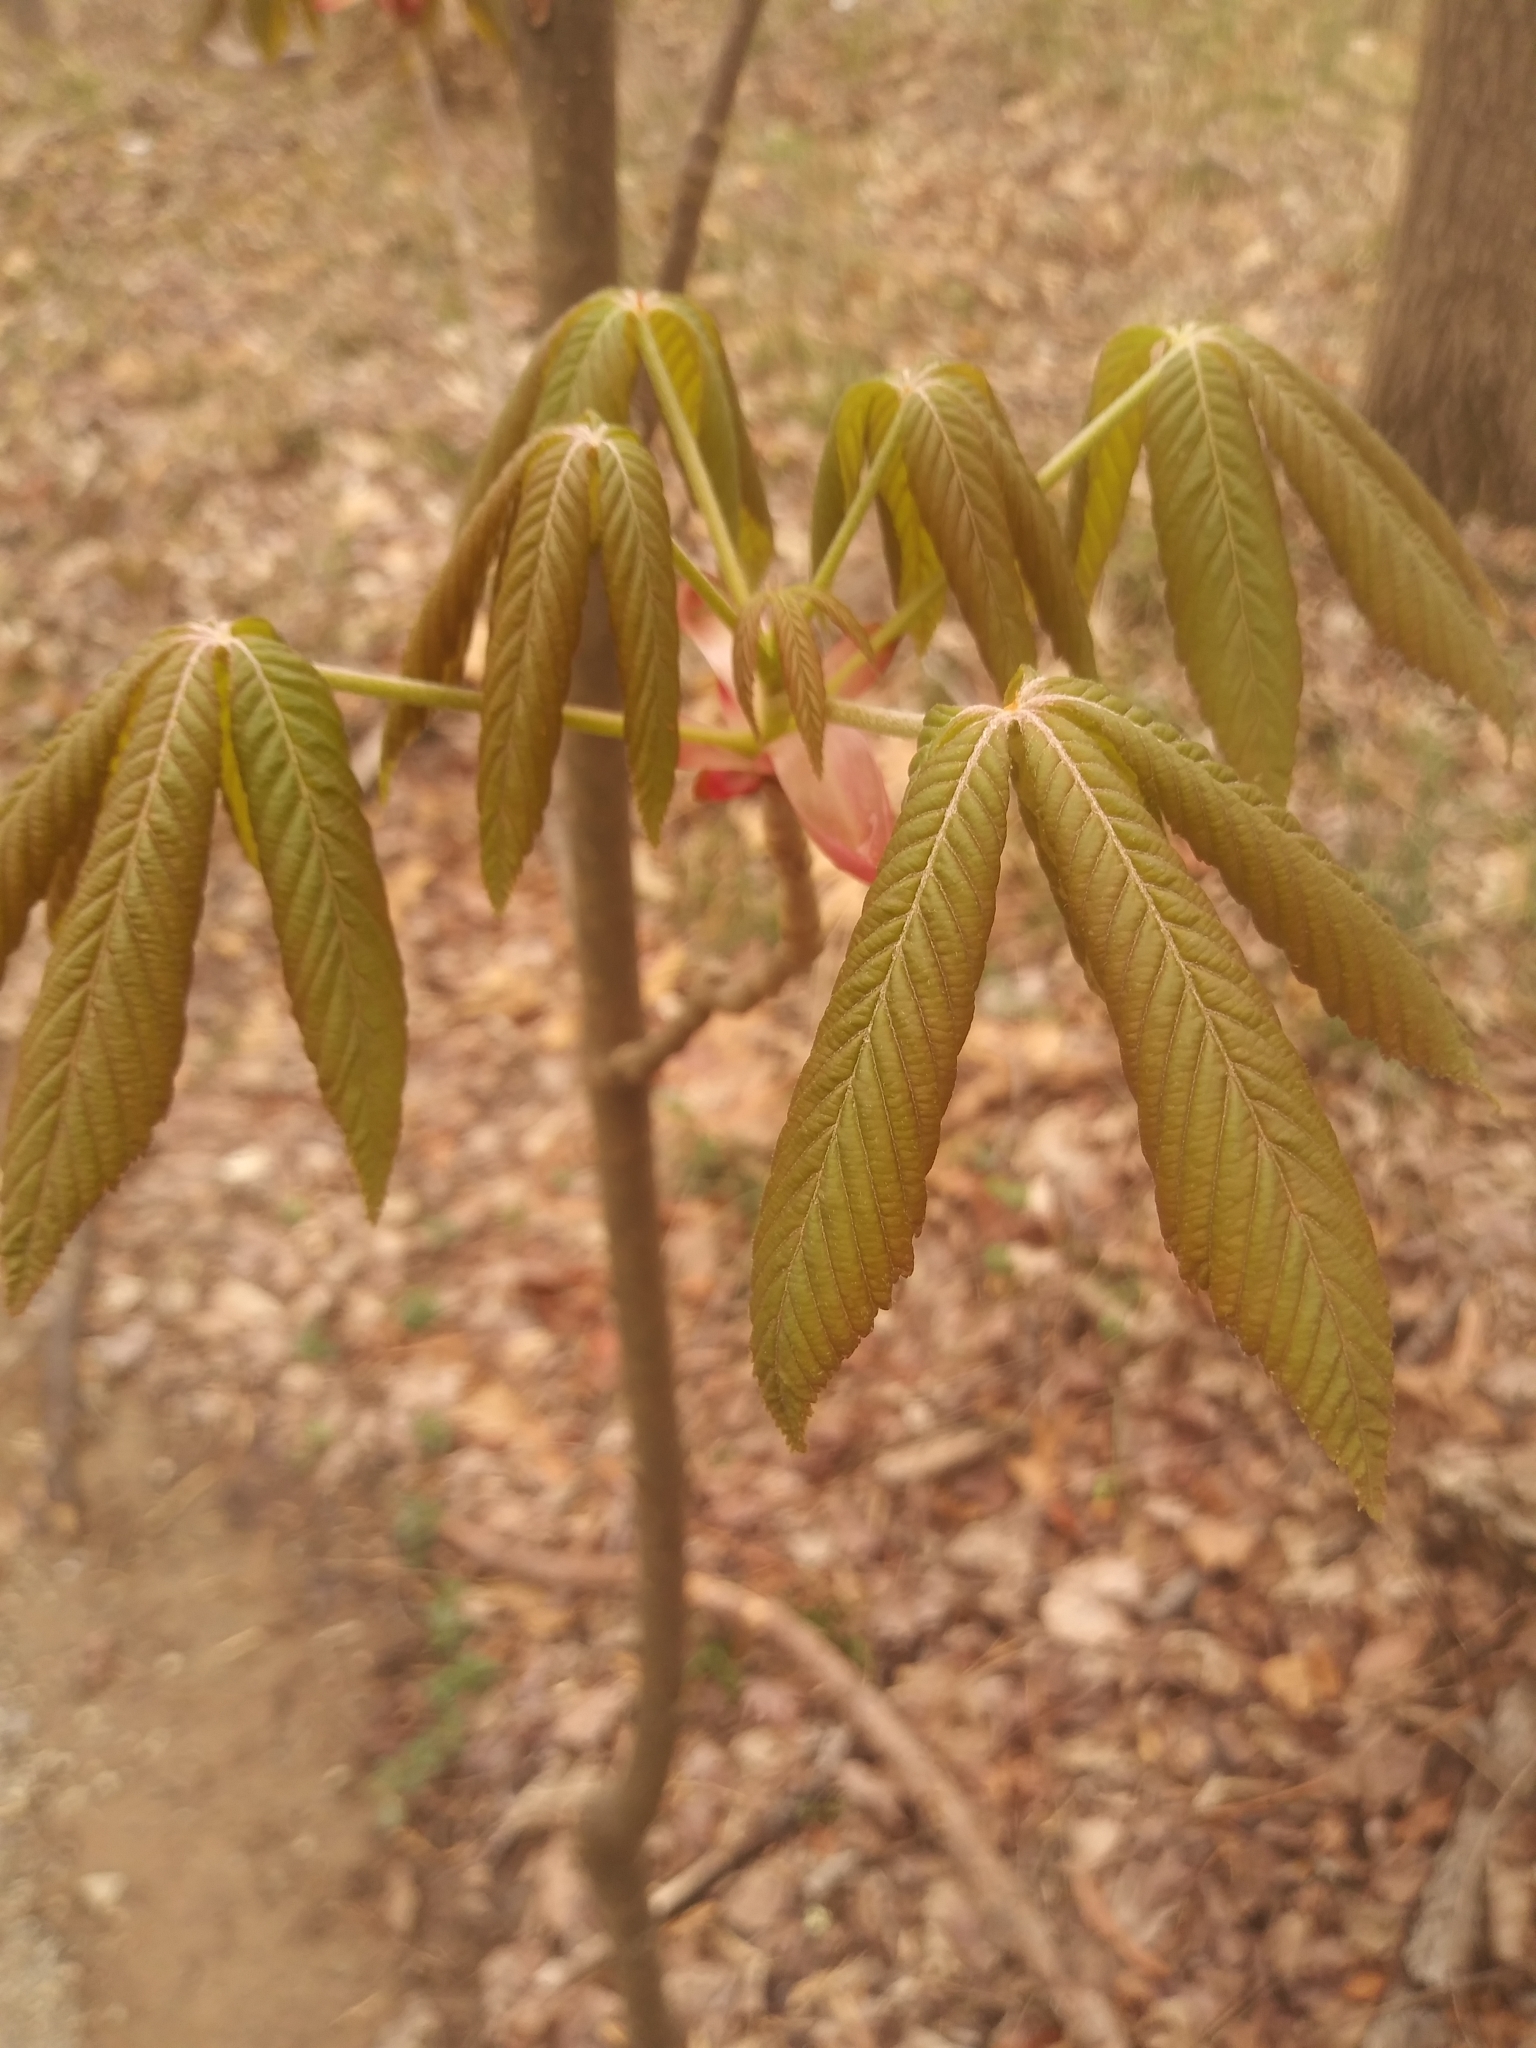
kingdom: Plantae
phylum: Tracheophyta
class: Magnoliopsida
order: Sapindales
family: Sapindaceae
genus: Aesculus
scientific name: Aesculus sylvatica
